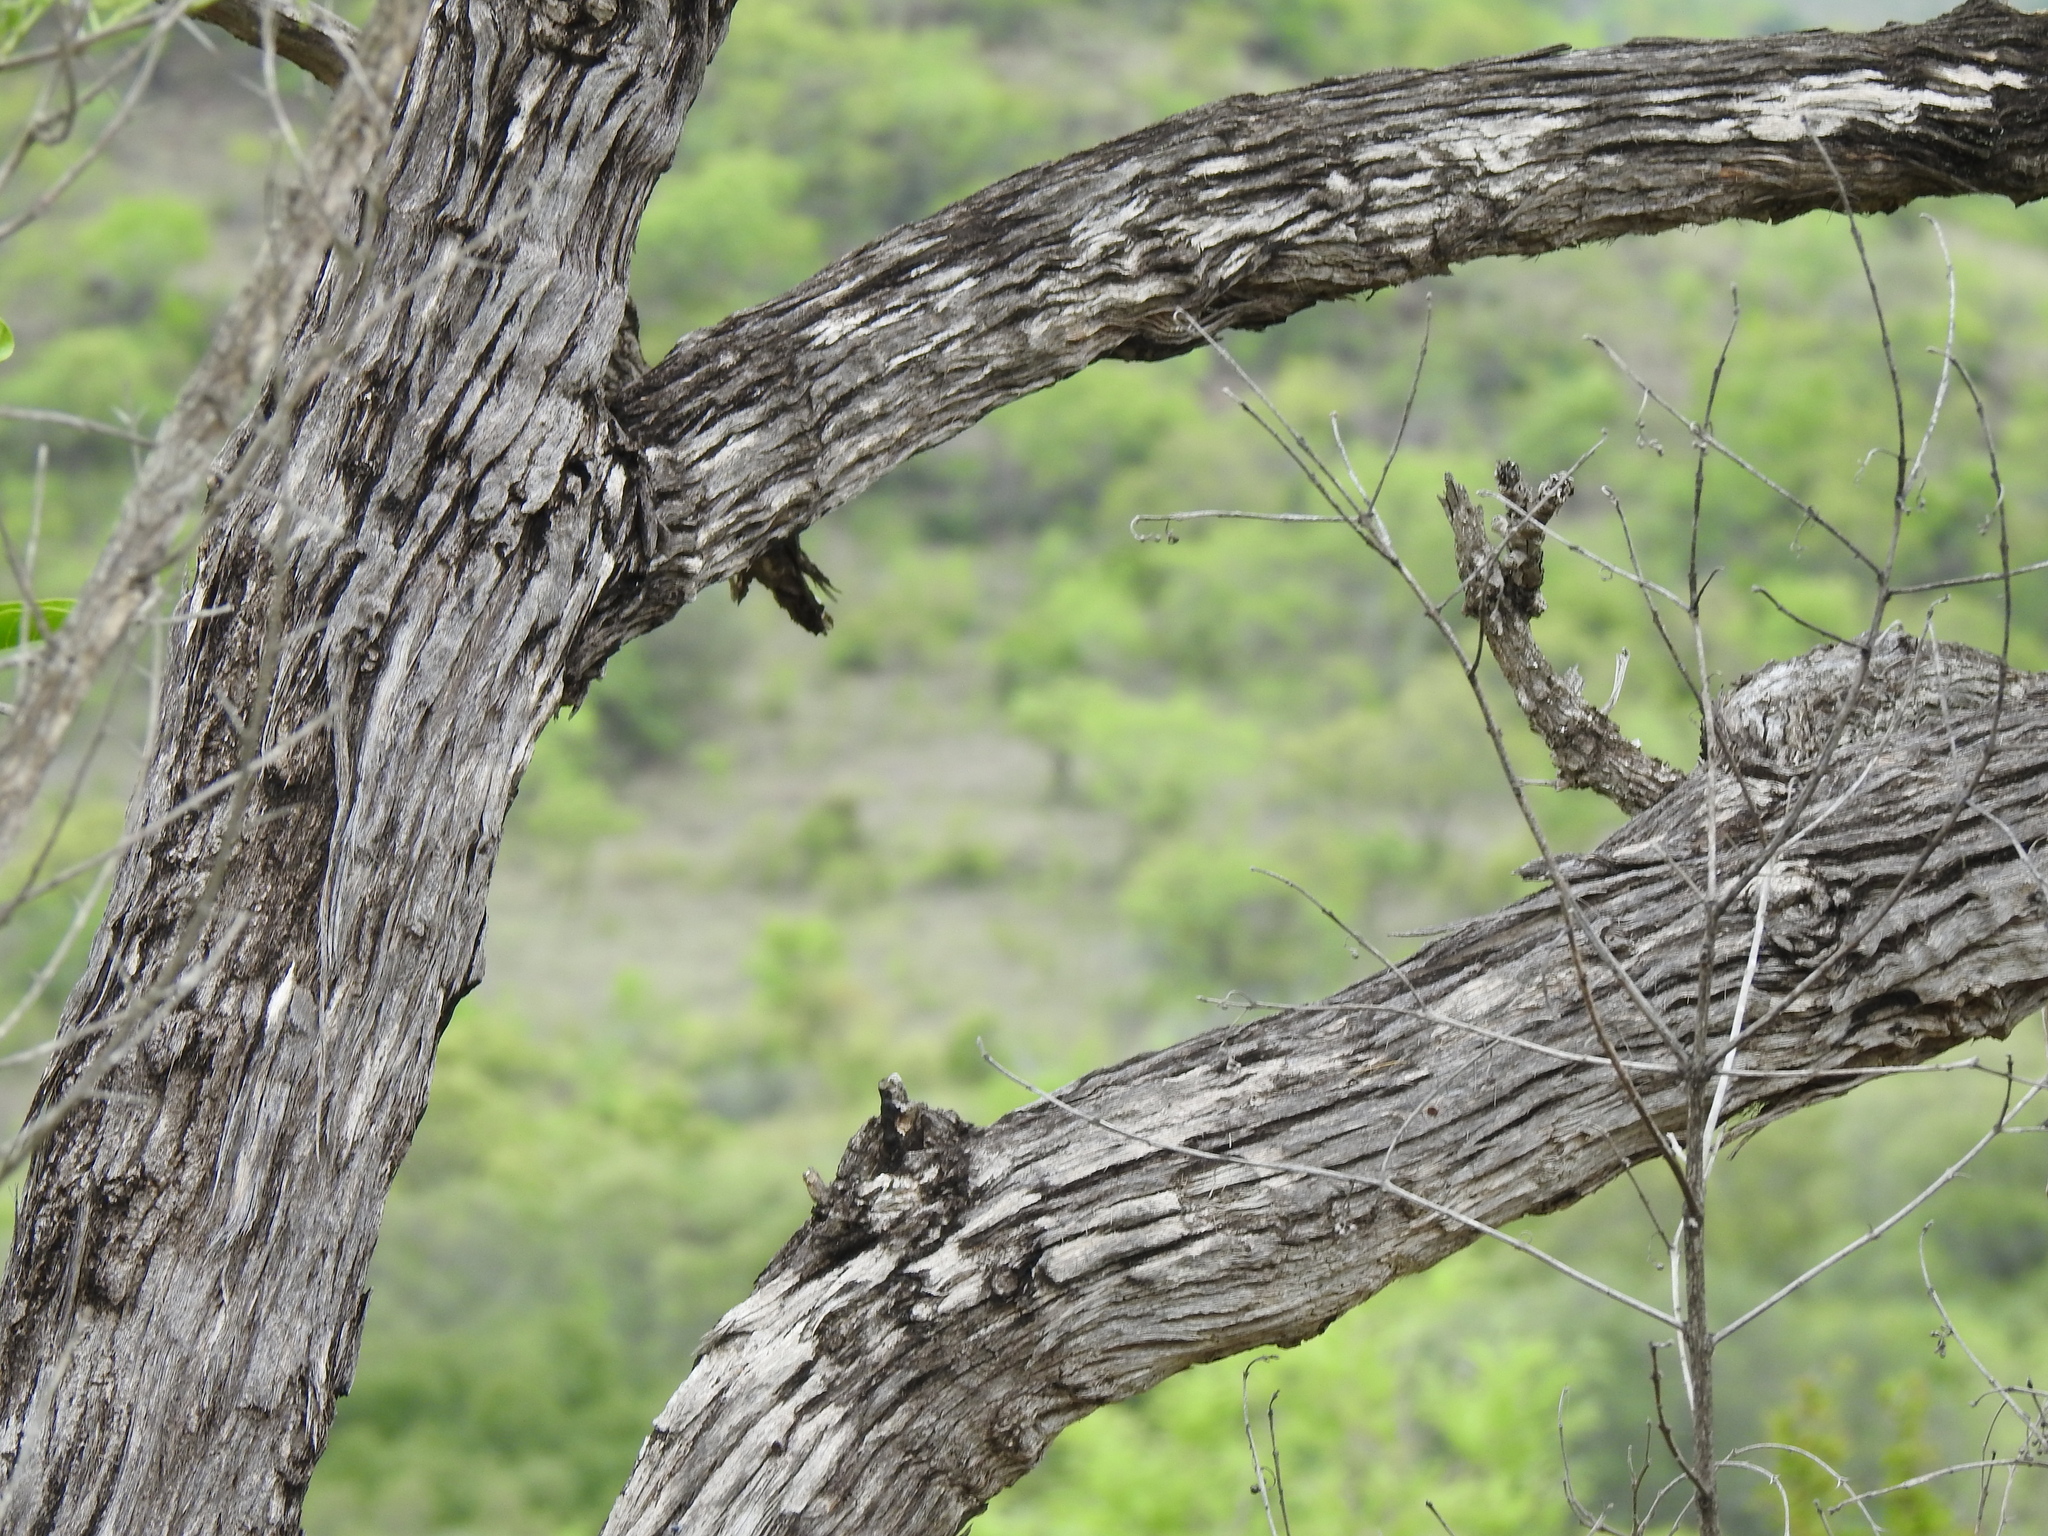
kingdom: Plantae
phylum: Tracheophyta
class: Magnoliopsida
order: Gentianales
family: Rubiaceae
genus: Pavetta
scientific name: Pavetta edentula
